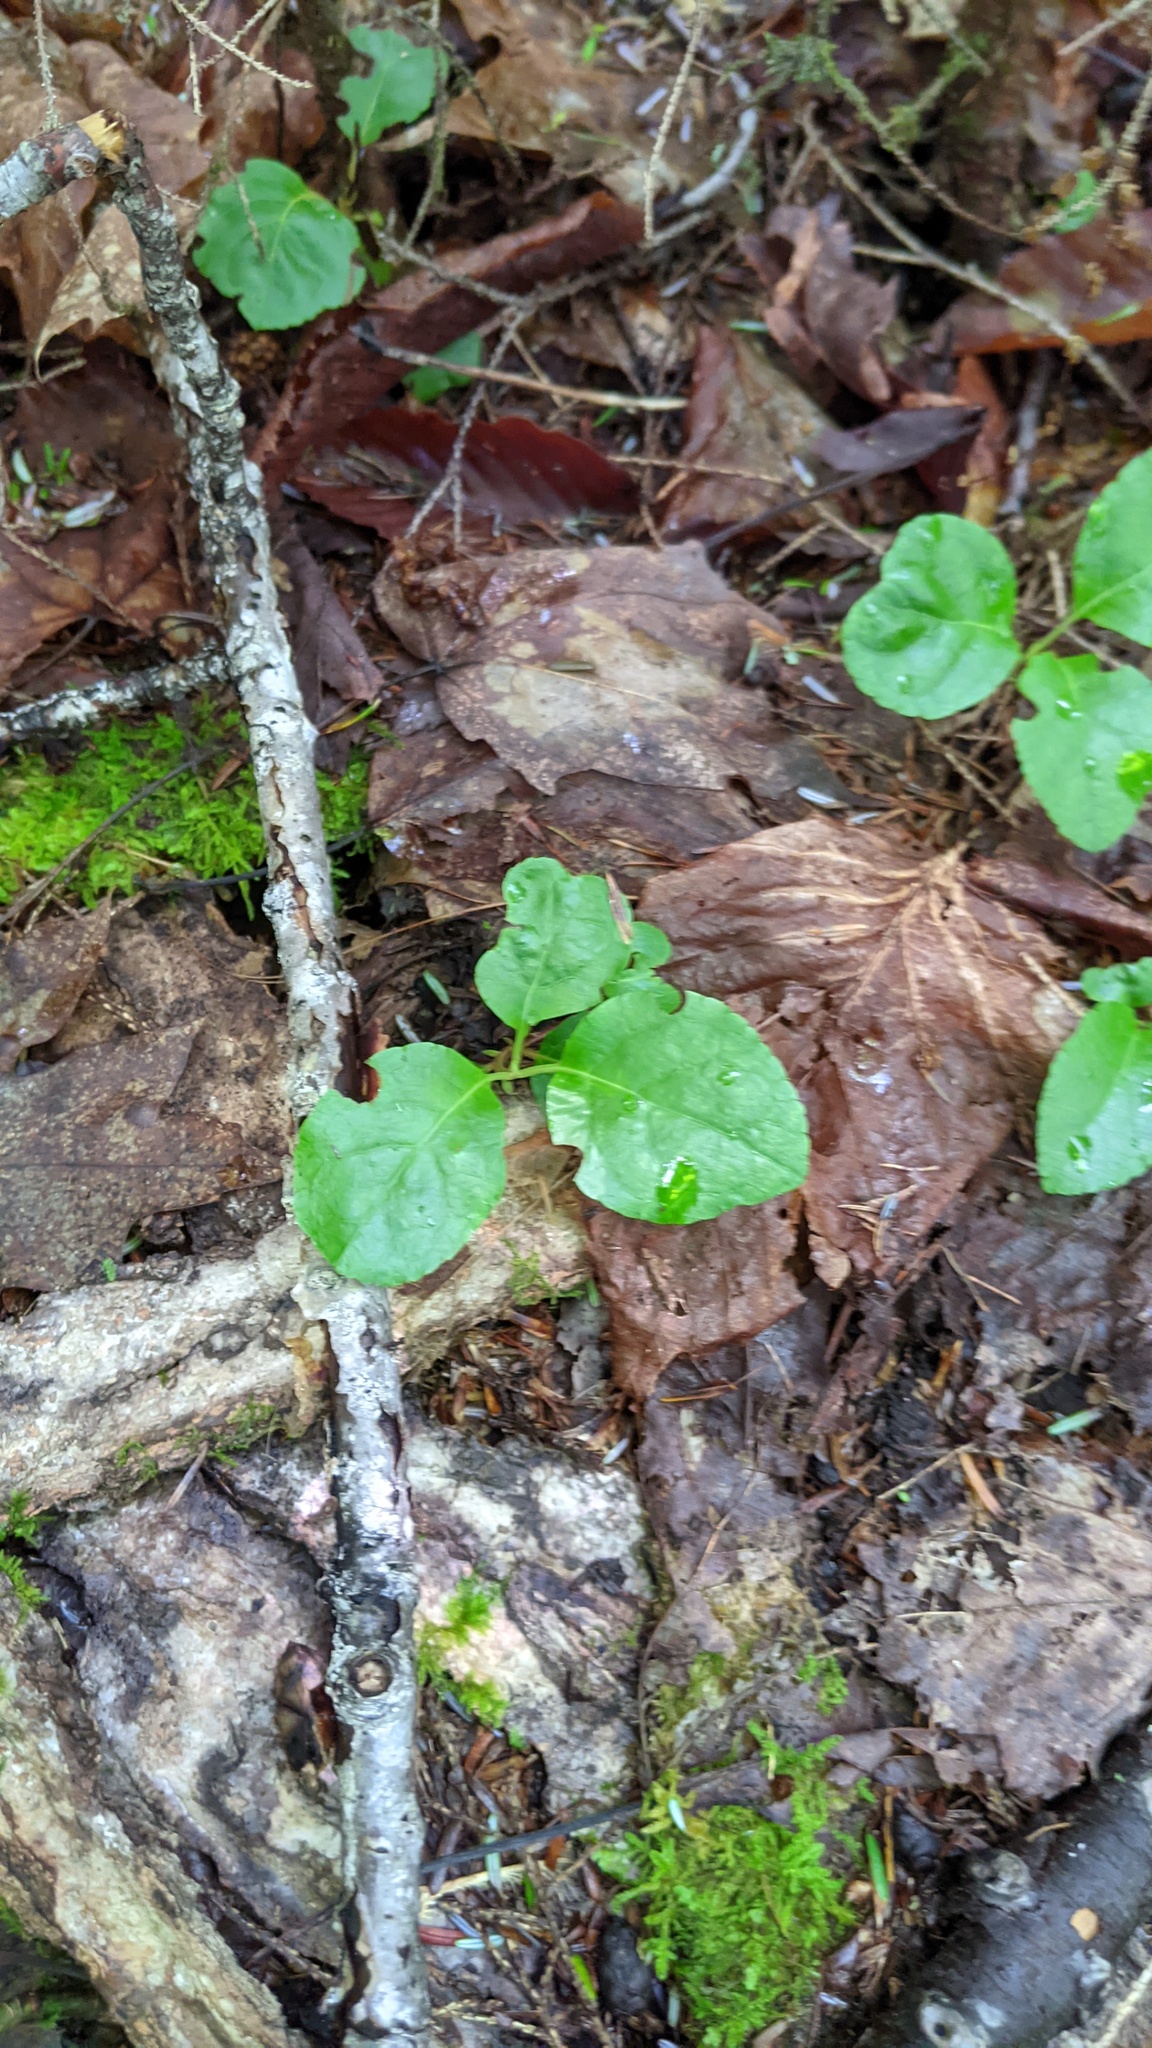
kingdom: Plantae
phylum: Tracheophyta
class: Magnoliopsida
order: Ericales
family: Ericaceae
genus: Pyrola
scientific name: Pyrola elliptica
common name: Shinleaf
